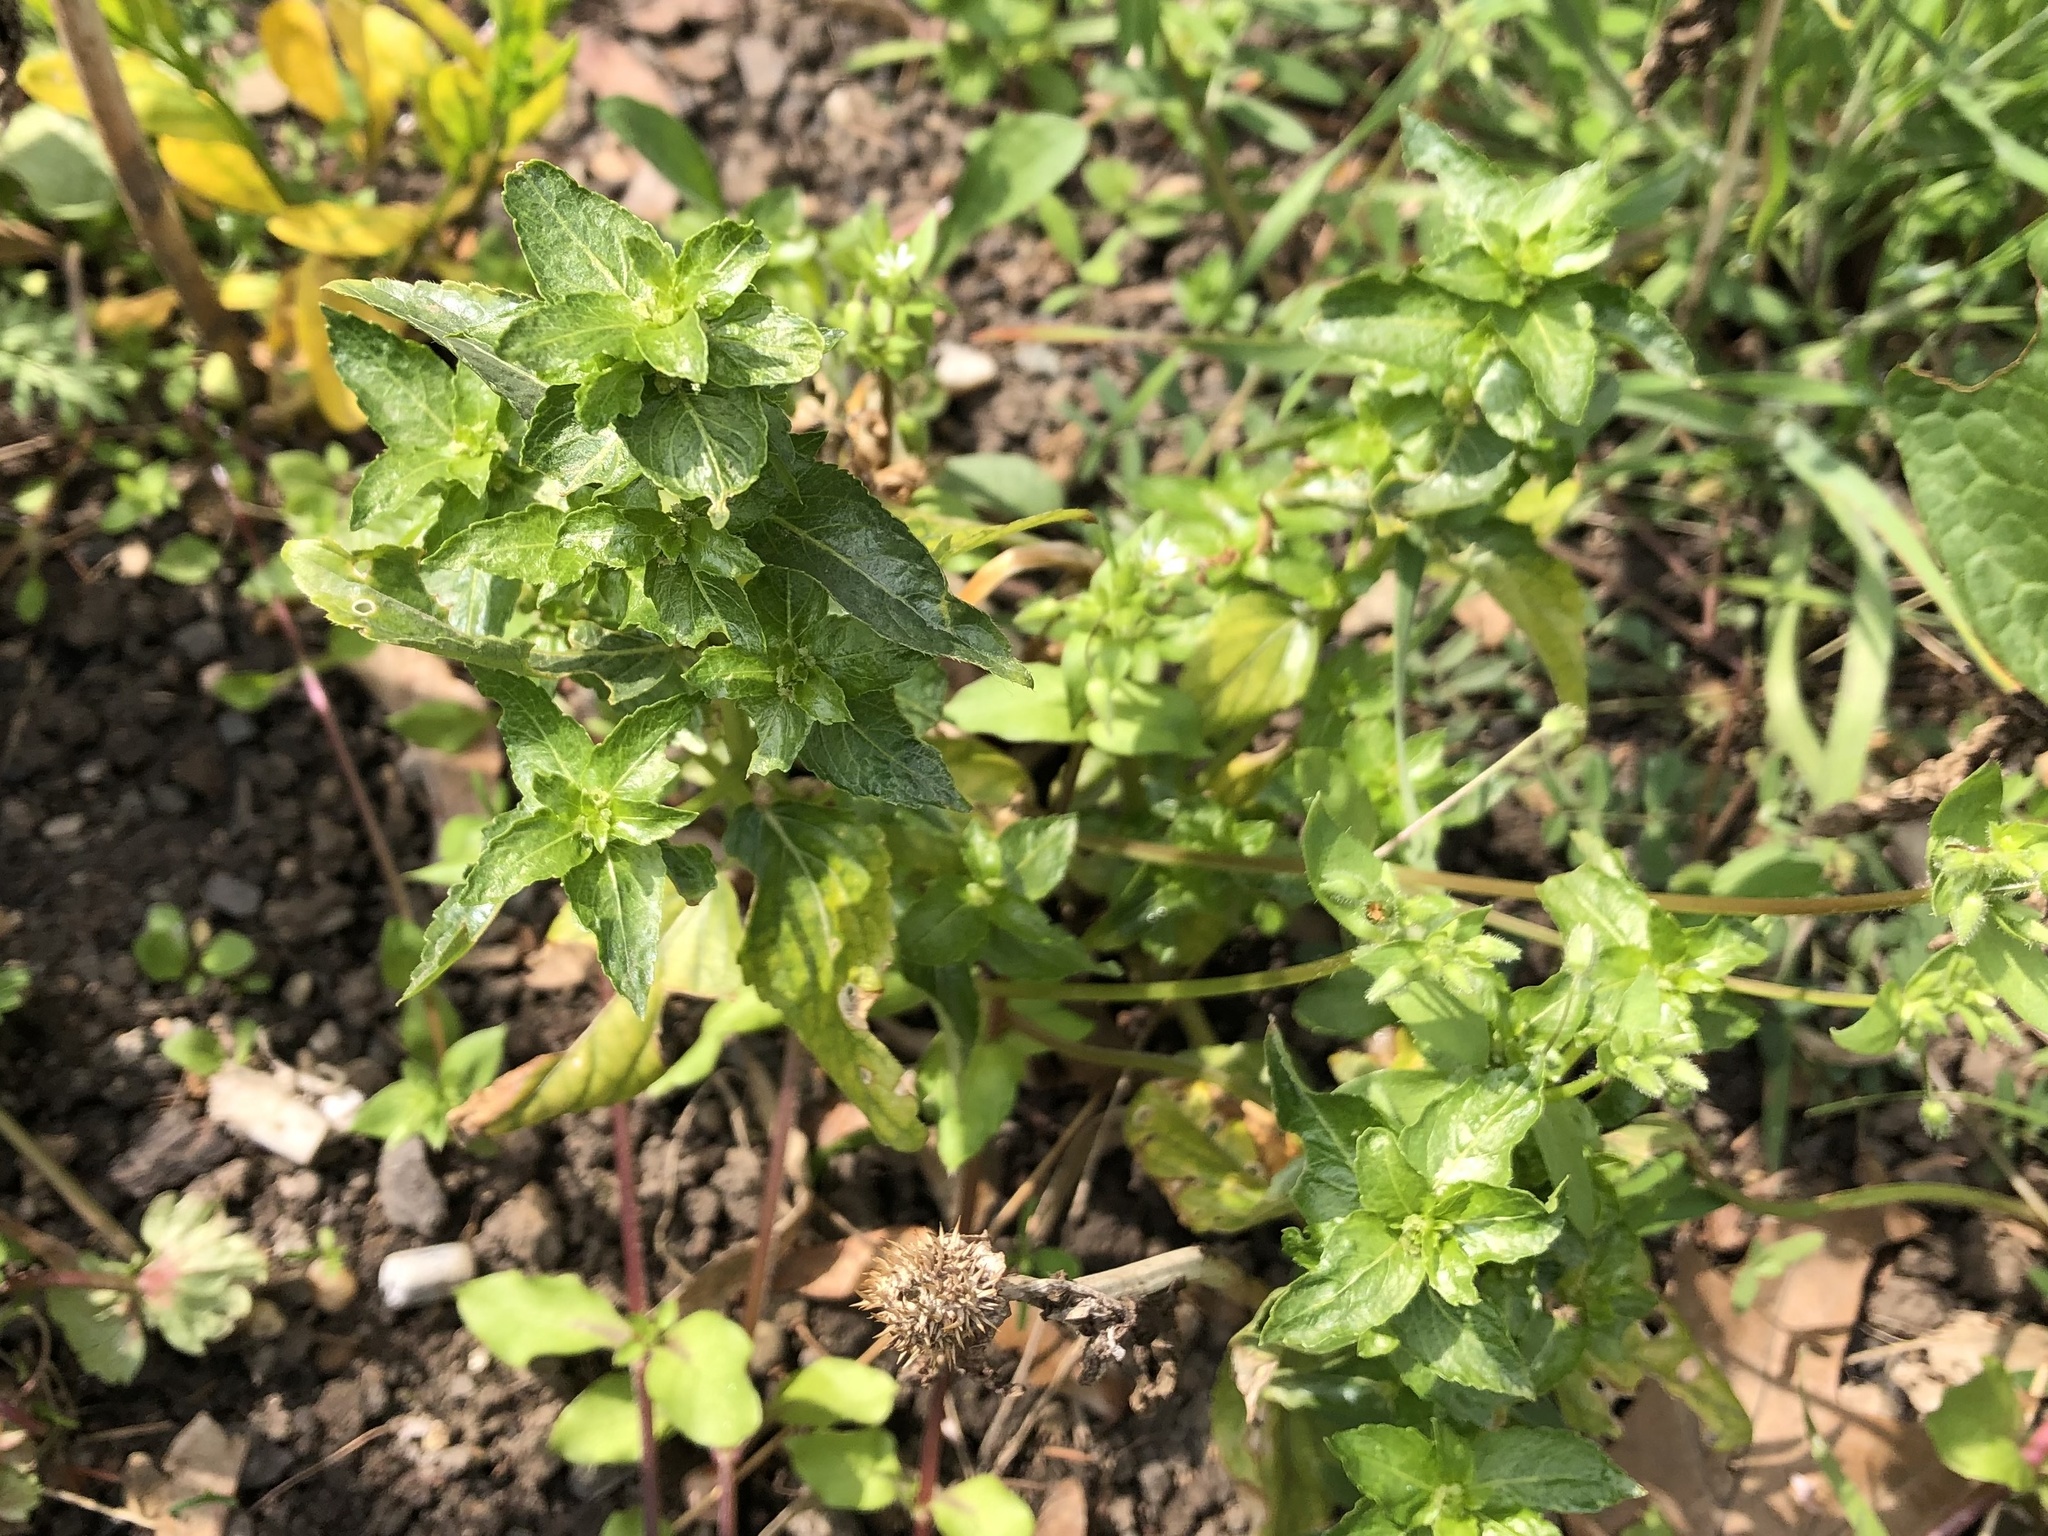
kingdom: Plantae
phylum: Tracheophyta
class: Magnoliopsida
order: Malpighiales
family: Euphorbiaceae
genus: Mercurialis
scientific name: Mercurialis annua
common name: Annual mercury
